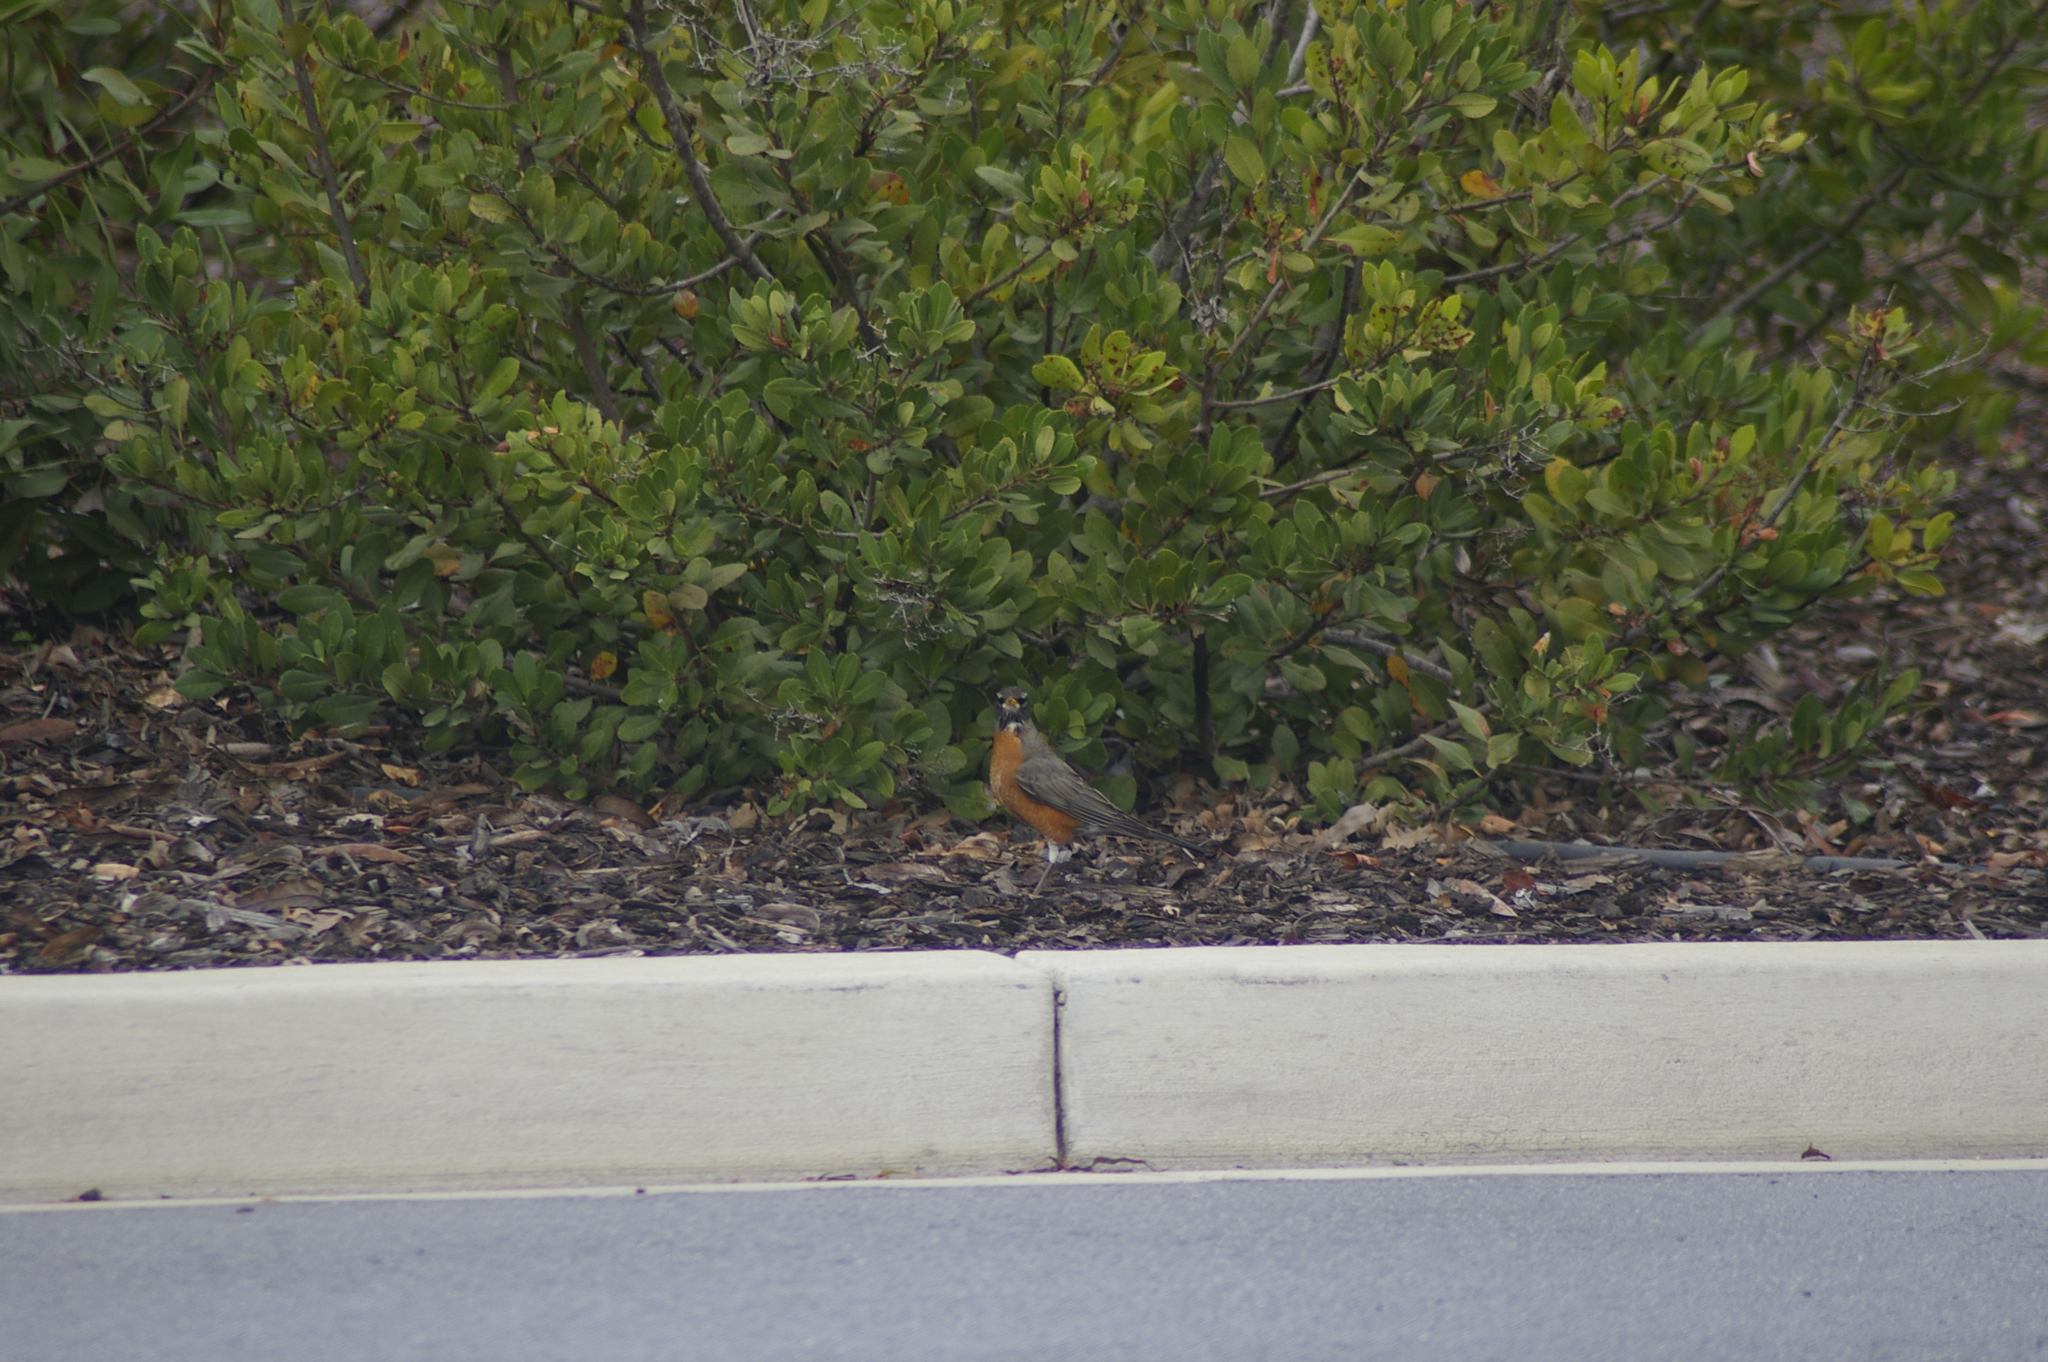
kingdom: Animalia
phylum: Chordata
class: Aves
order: Passeriformes
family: Turdidae
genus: Turdus
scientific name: Turdus migratorius
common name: American robin
